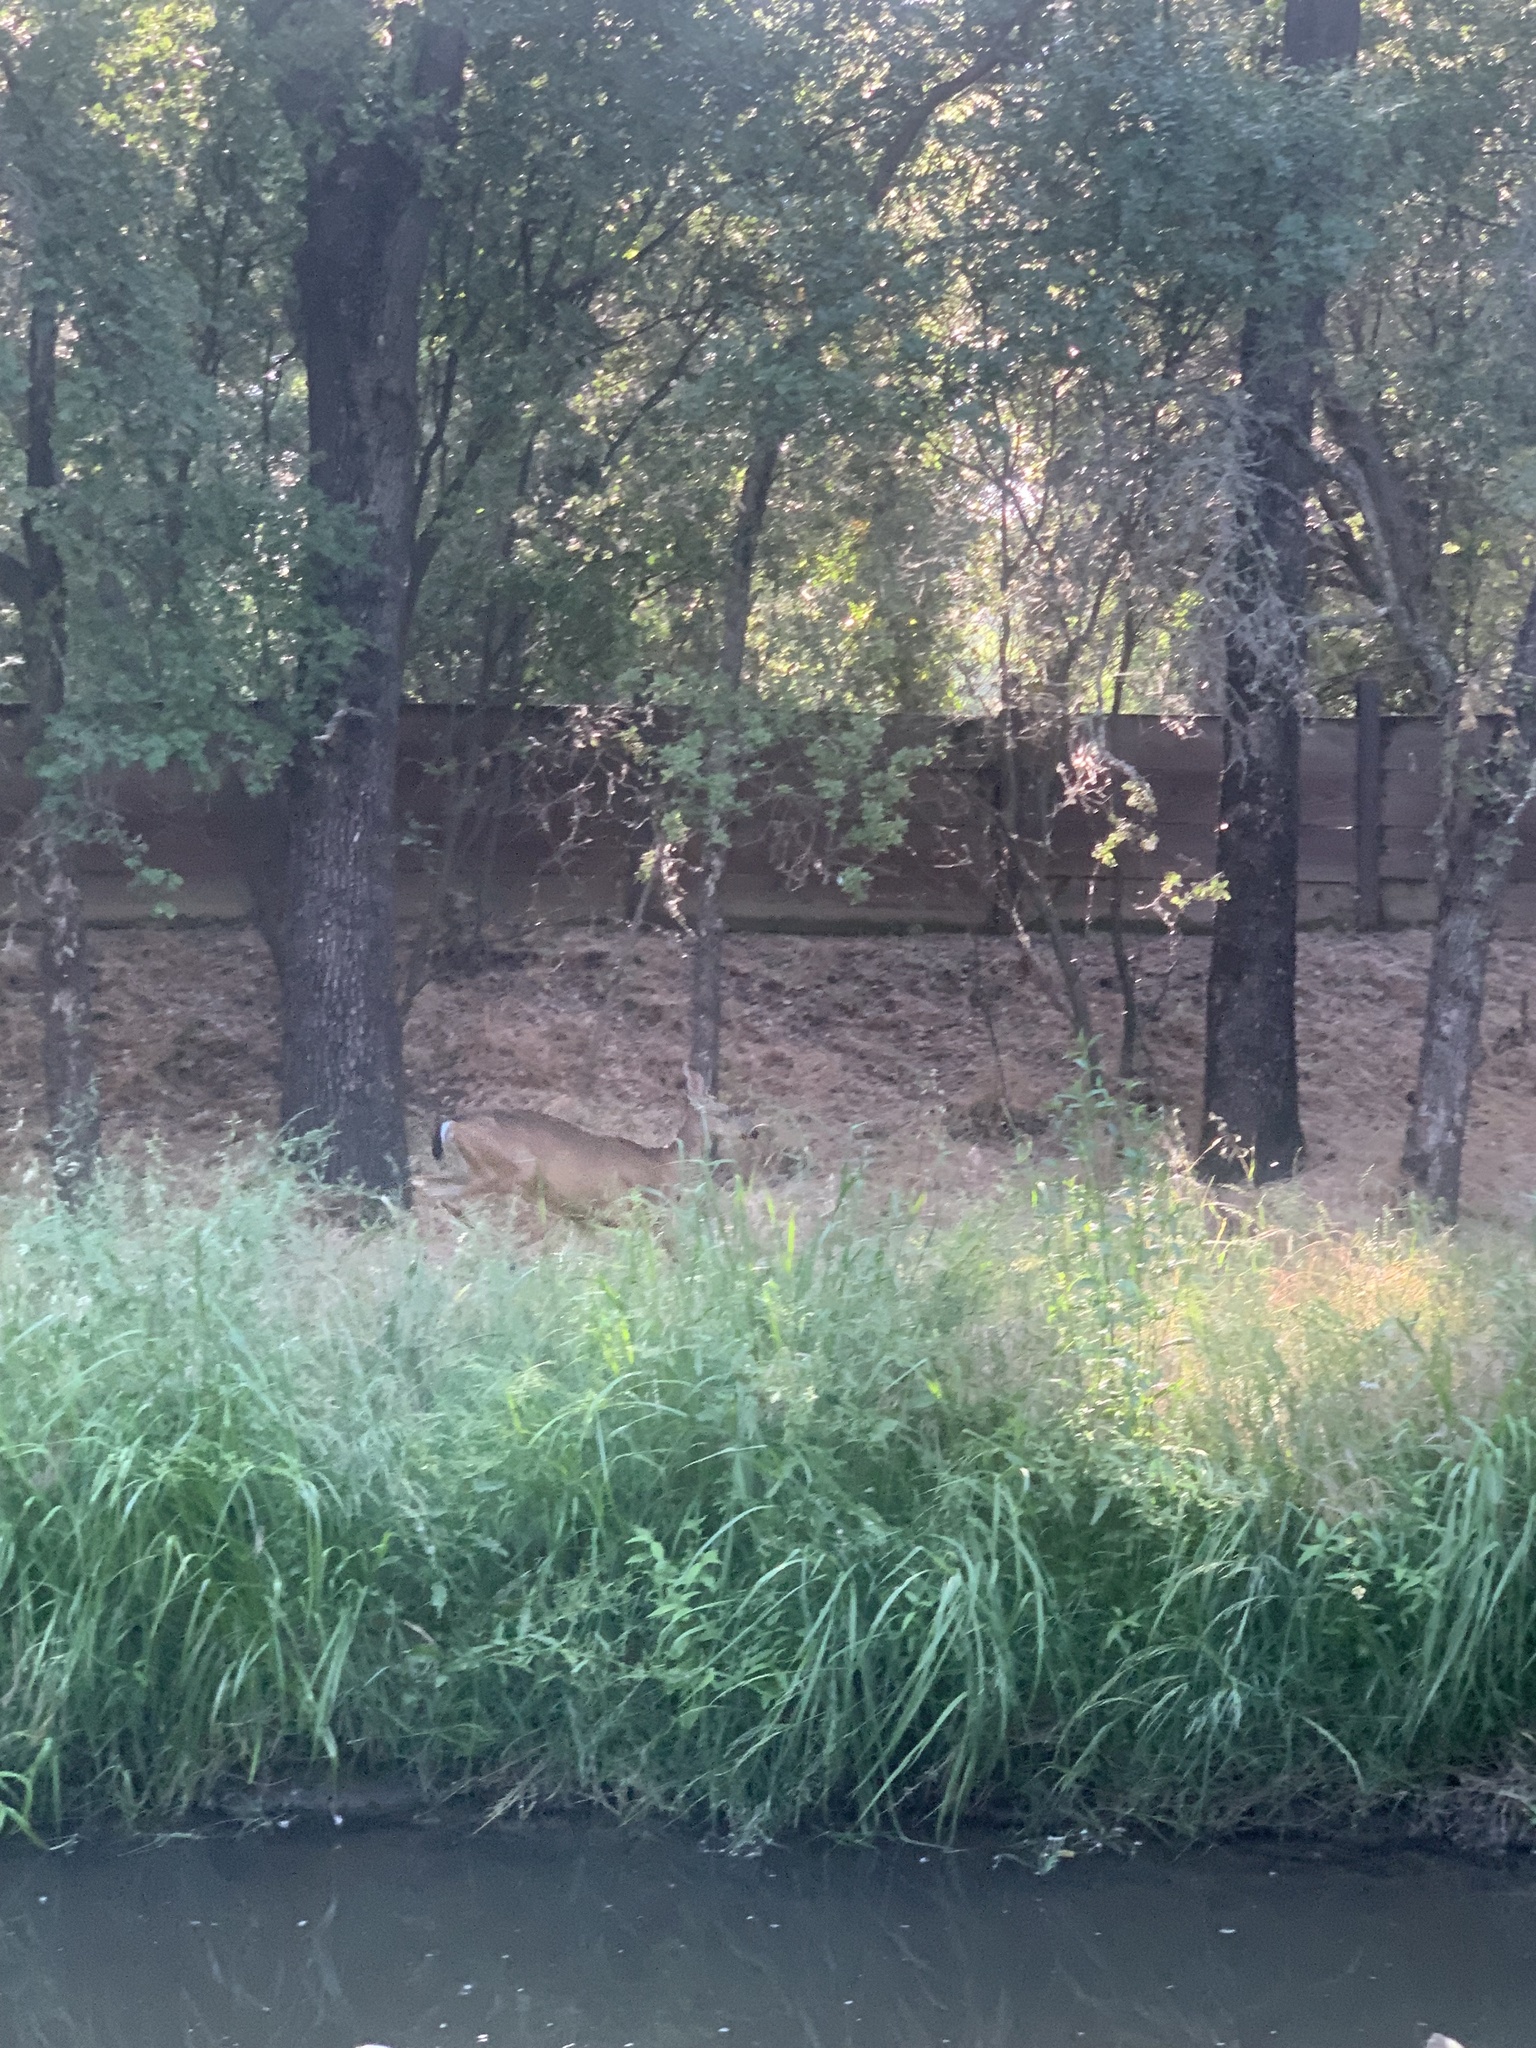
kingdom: Animalia
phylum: Chordata
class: Mammalia
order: Artiodactyla
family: Cervidae
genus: Odocoileus
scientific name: Odocoileus hemionus
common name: Mule deer
